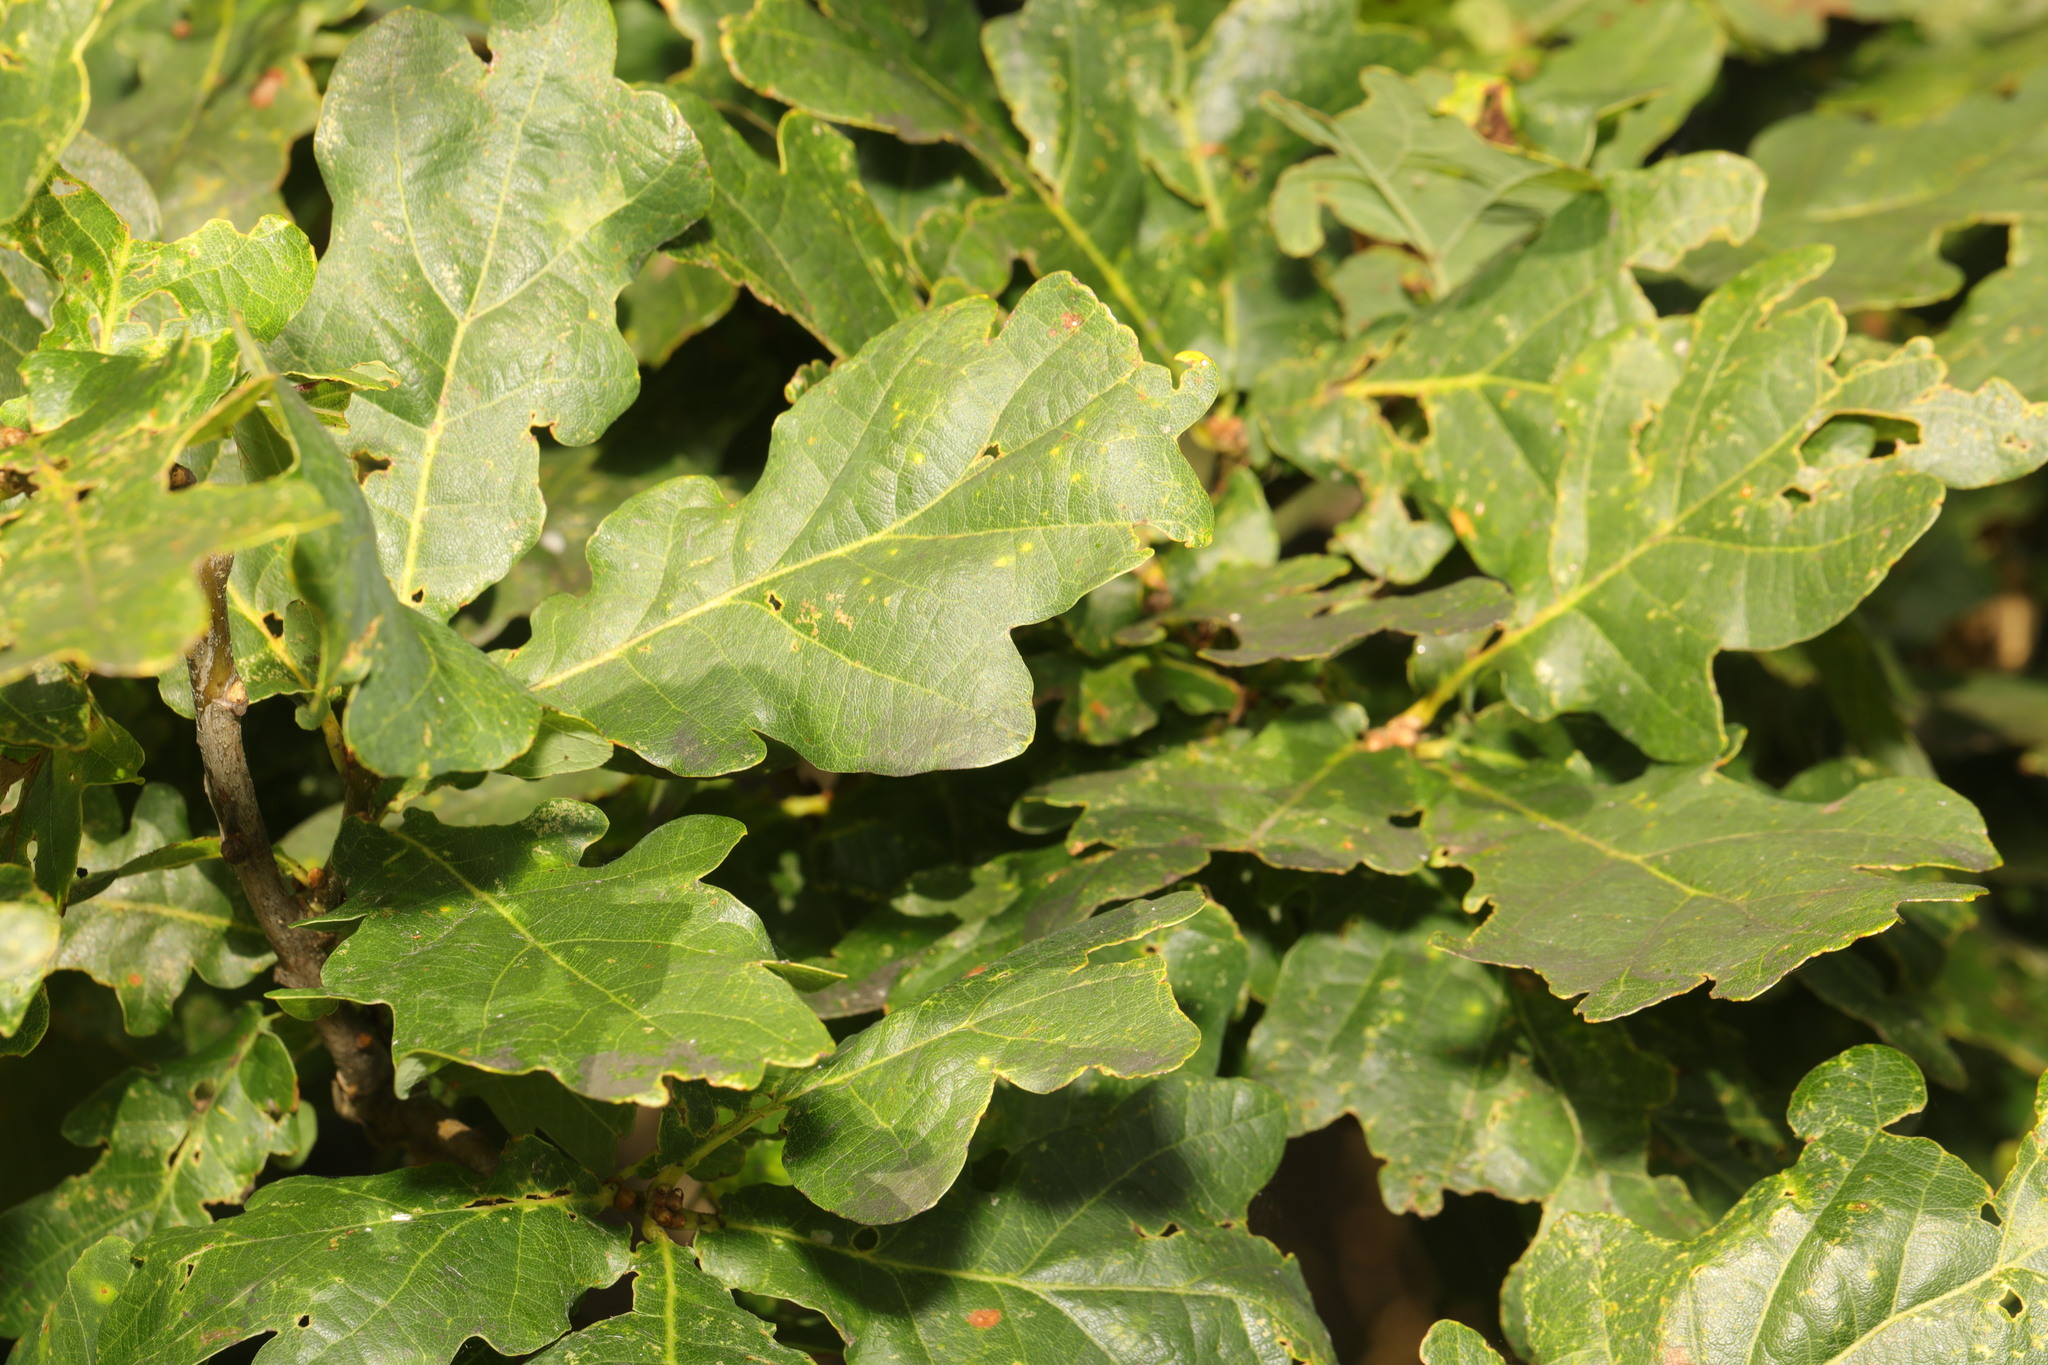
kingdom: Plantae
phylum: Tracheophyta
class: Magnoliopsida
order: Fagales
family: Fagaceae
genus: Quercus
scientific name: Quercus robur
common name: Pedunculate oak
